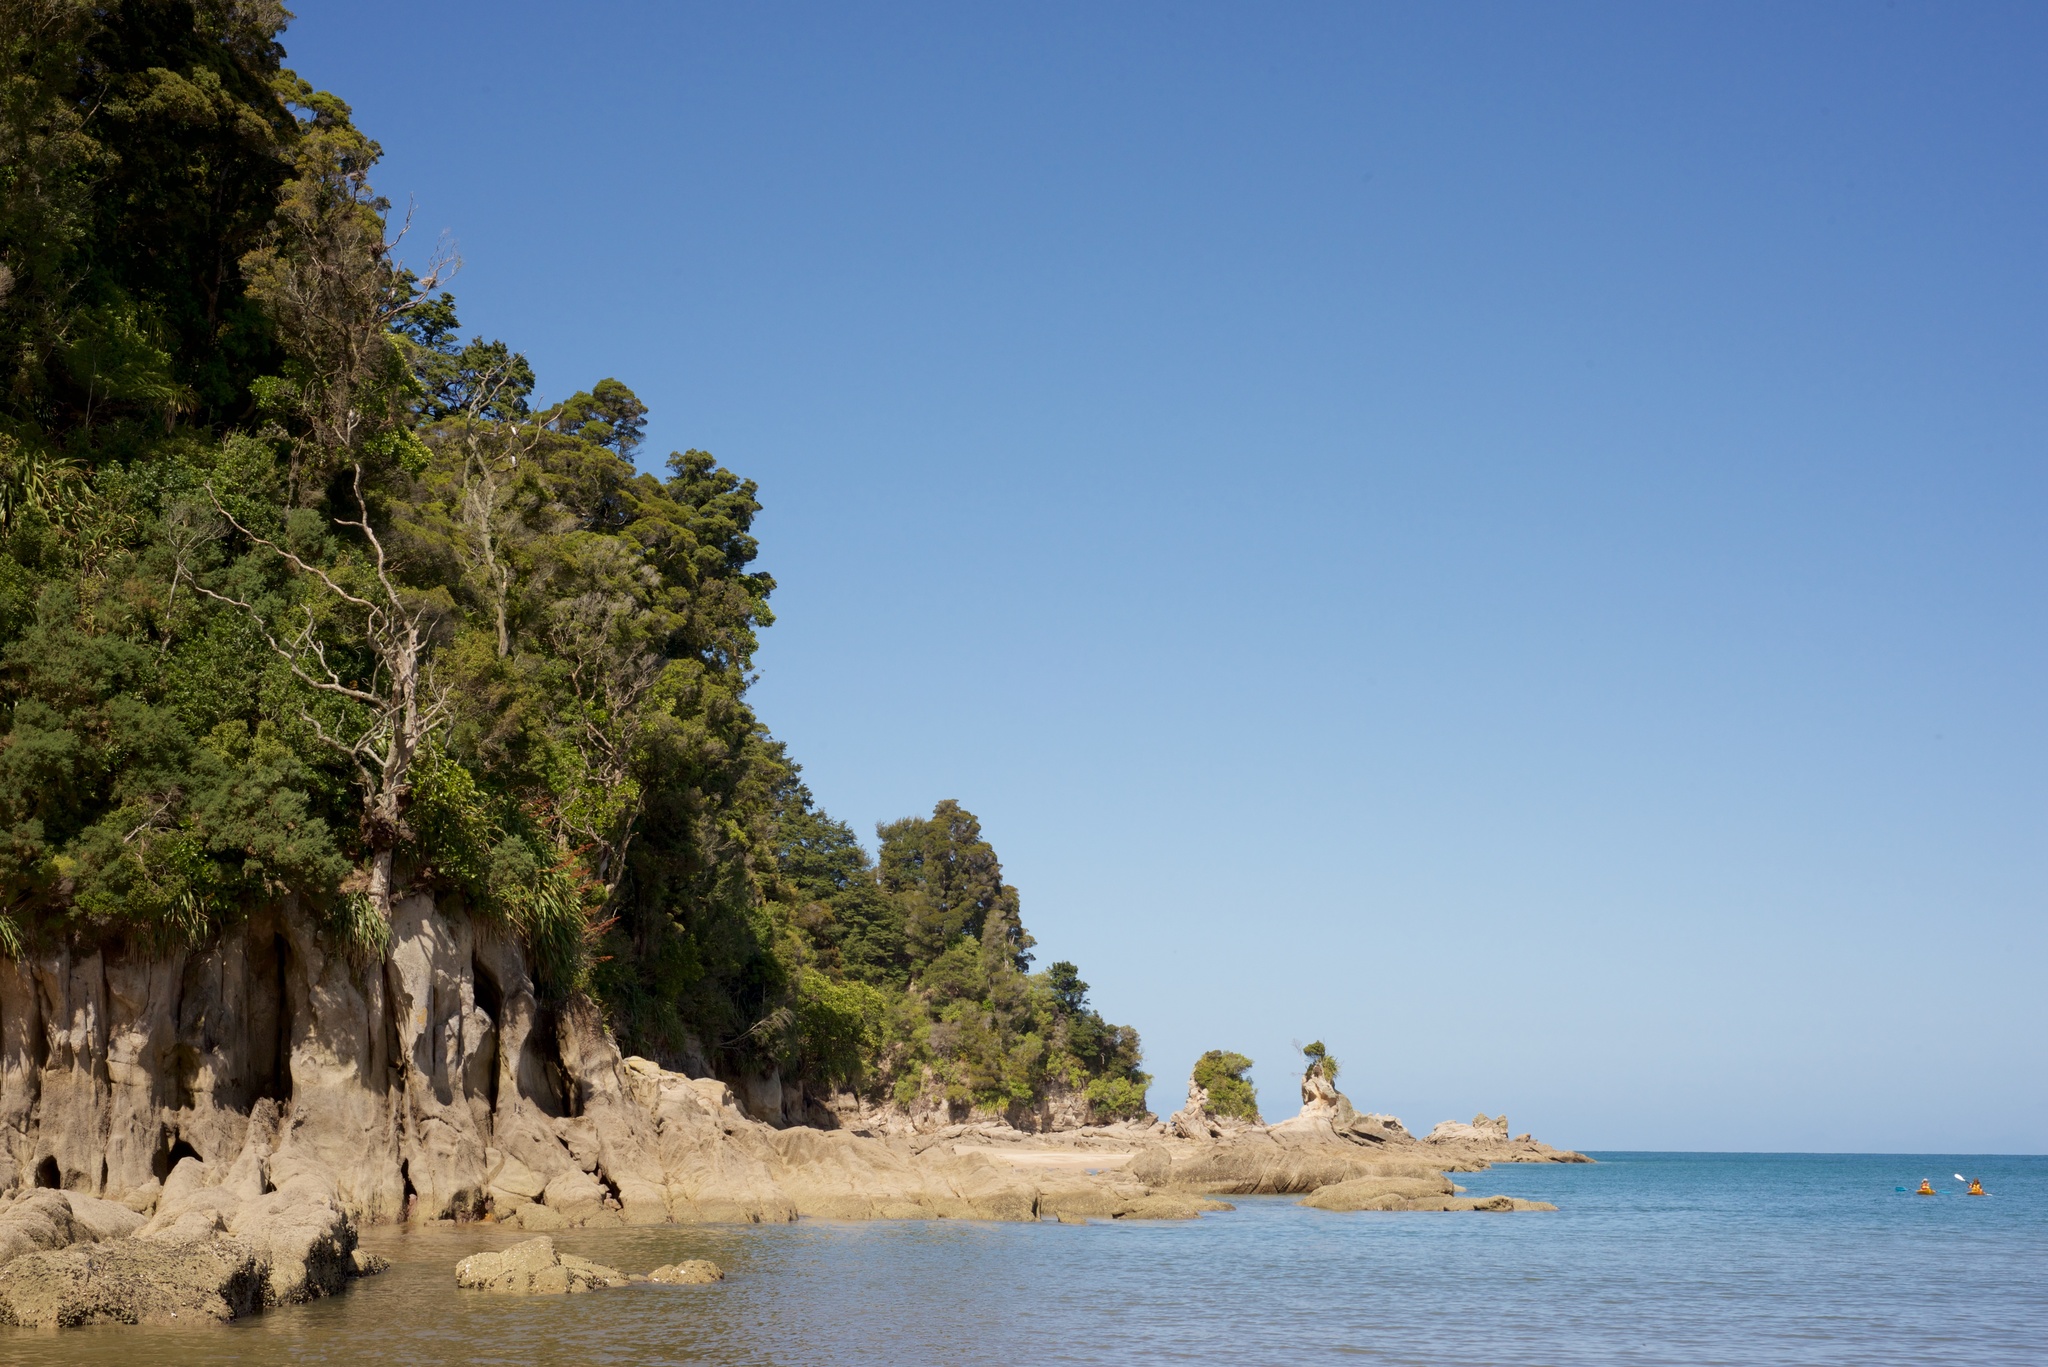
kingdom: Animalia
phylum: Chordata
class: Aves
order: Suliformes
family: Phalacrocoracidae
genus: Phalacrocorax
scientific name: Phalacrocorax varius
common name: Pied cormorant
